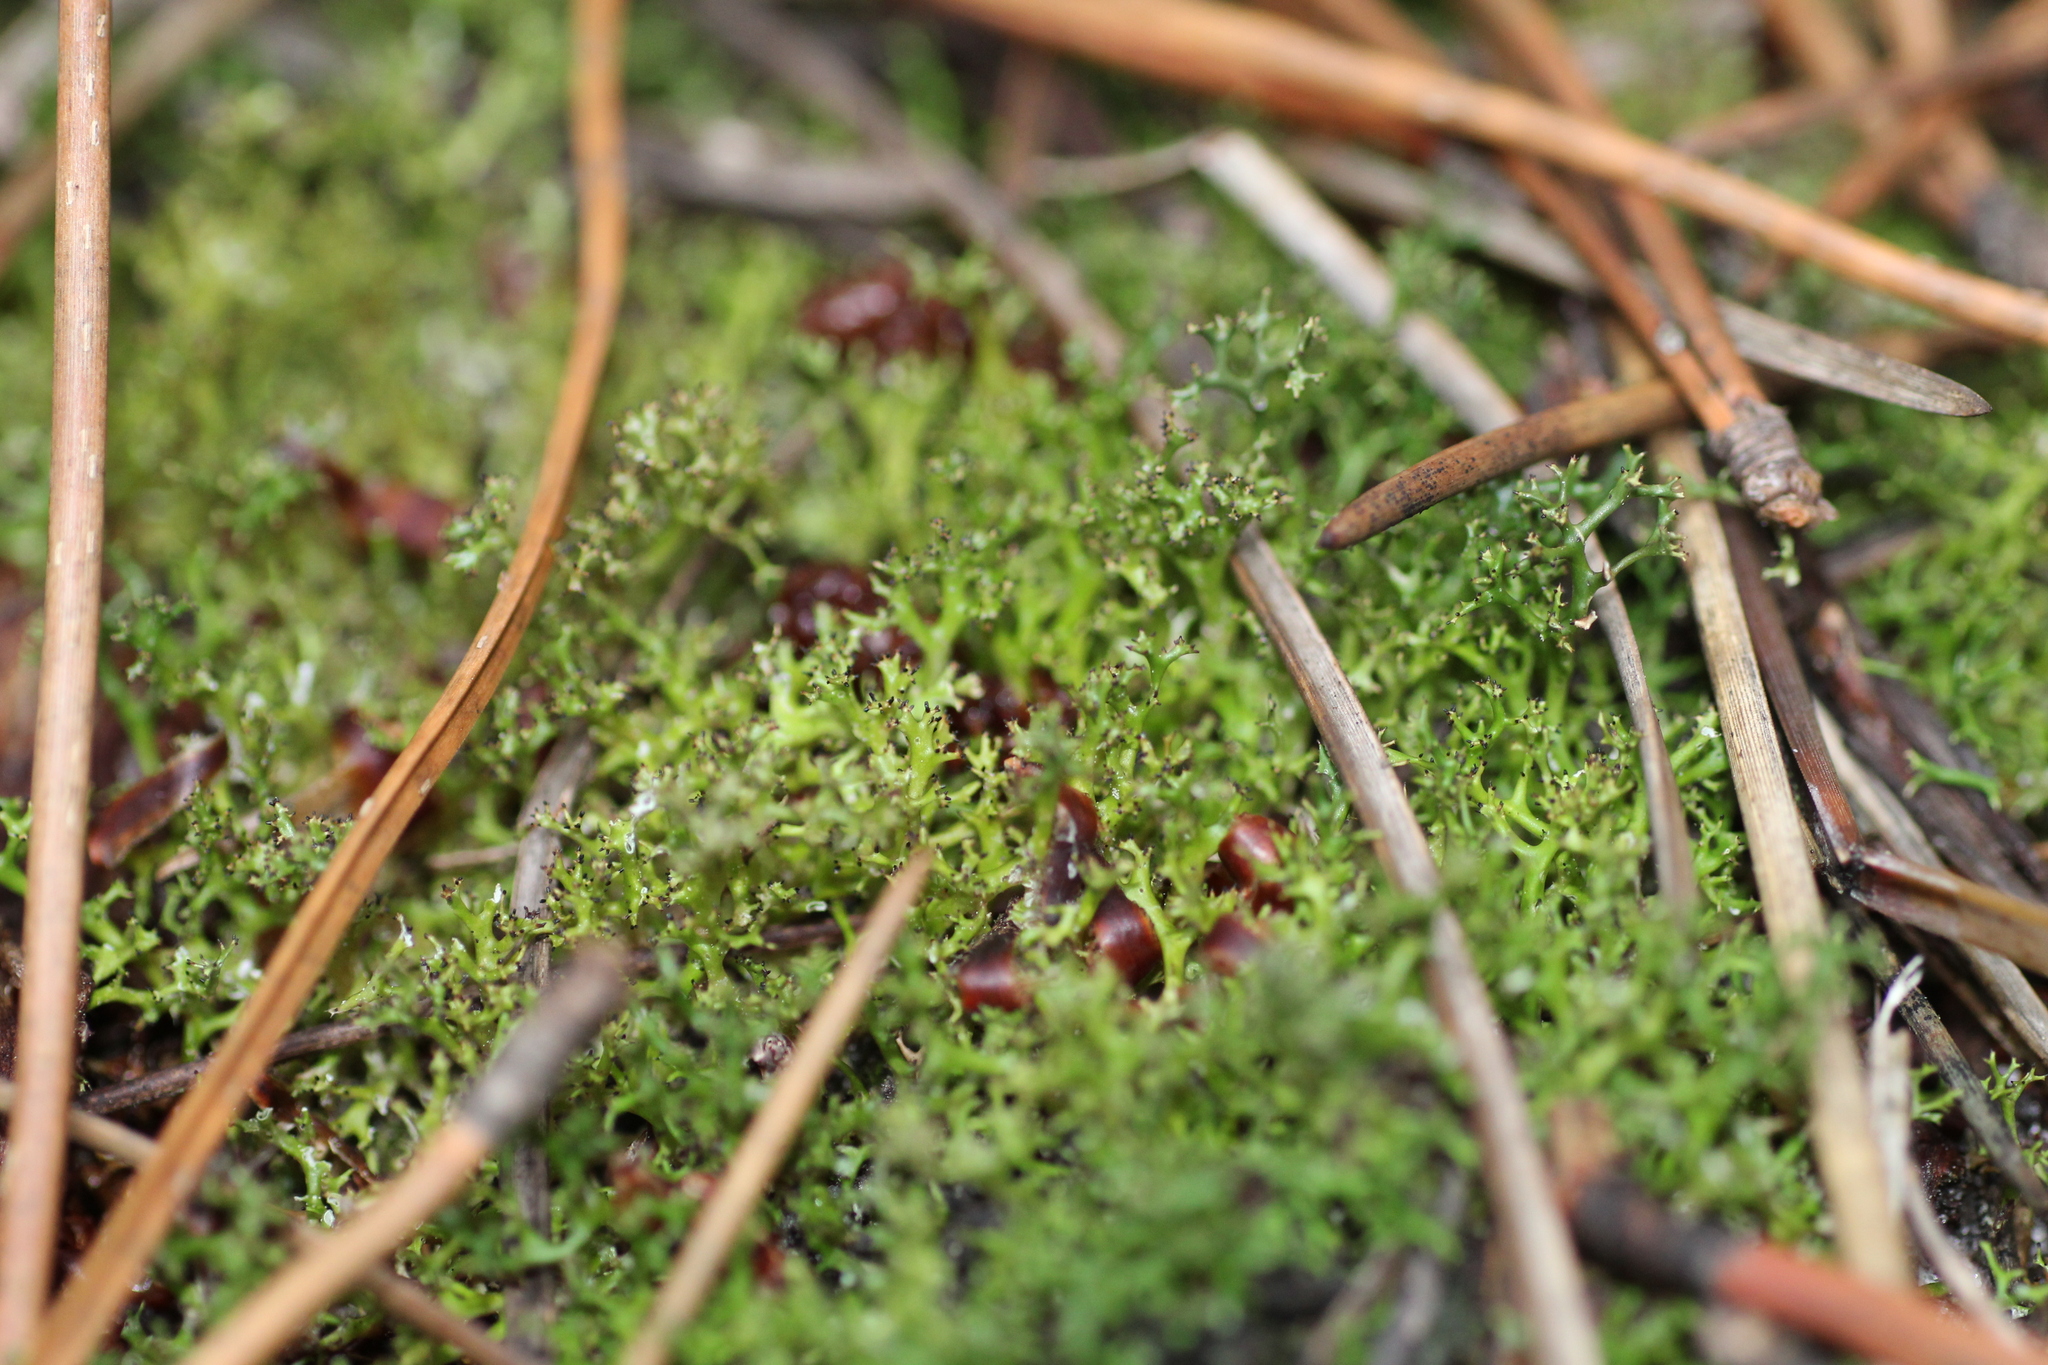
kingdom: Fungi
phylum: Ascomycota
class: Lecanoromycetes
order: Lecanorales
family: Cladoniaceae
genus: Cladia
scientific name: Cladia aggregata
